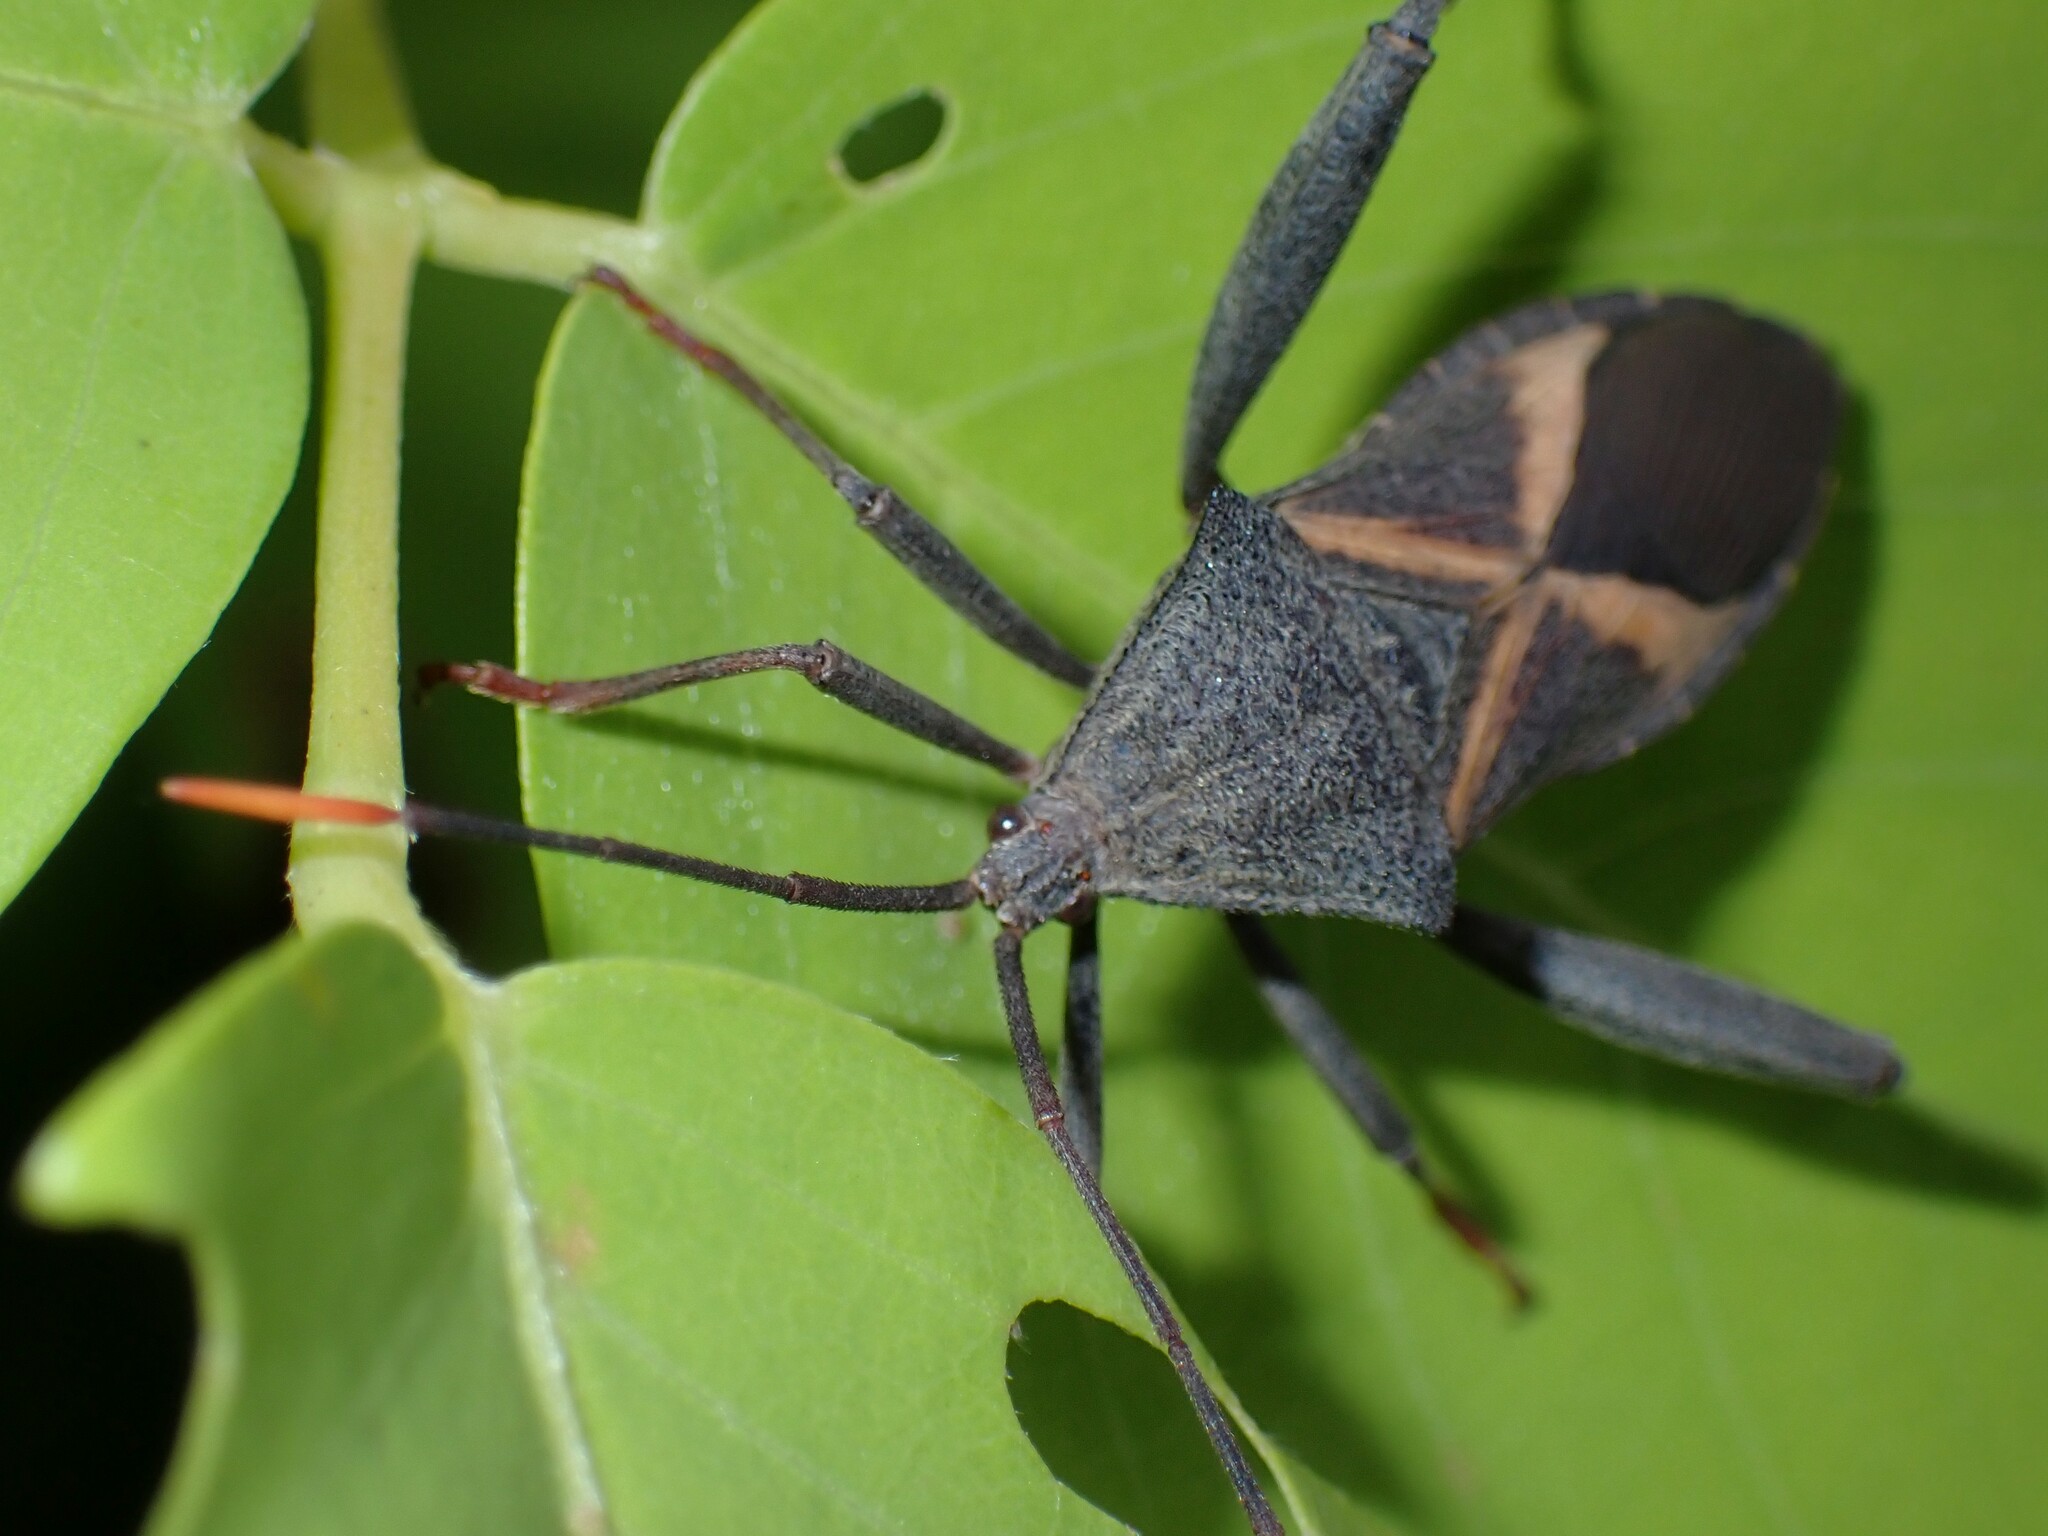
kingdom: Animalia
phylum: Arthropoda
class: Insecta
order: Hemiptera
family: Coreidae
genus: Mictis
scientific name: Mictis profana
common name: Crusader bug
